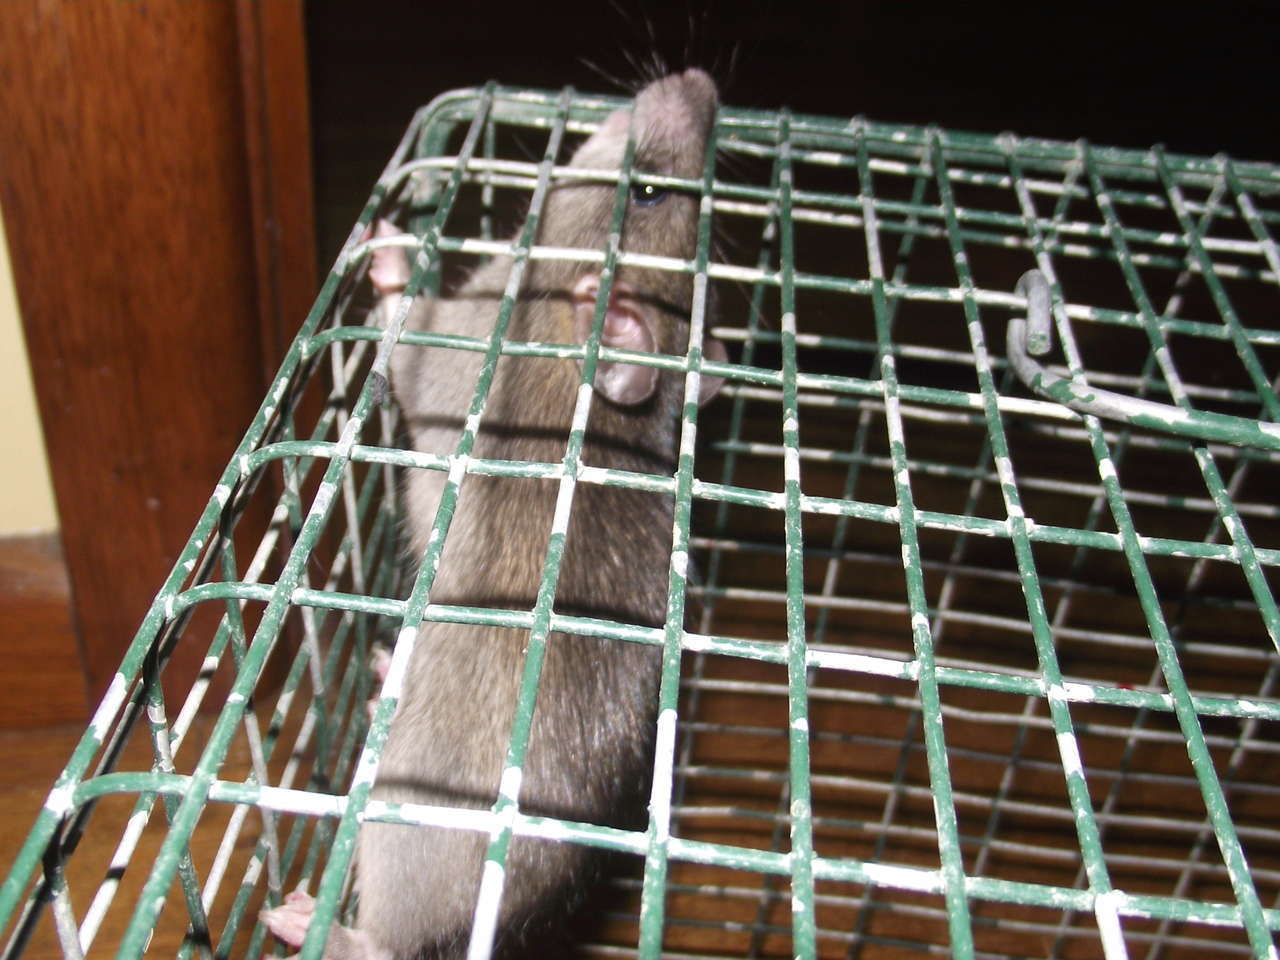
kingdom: Animalia
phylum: Chordata
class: Mammalia
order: Rodentia
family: Muridae
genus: Rattus
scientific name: Rattus norvegicus
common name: Brown rat
